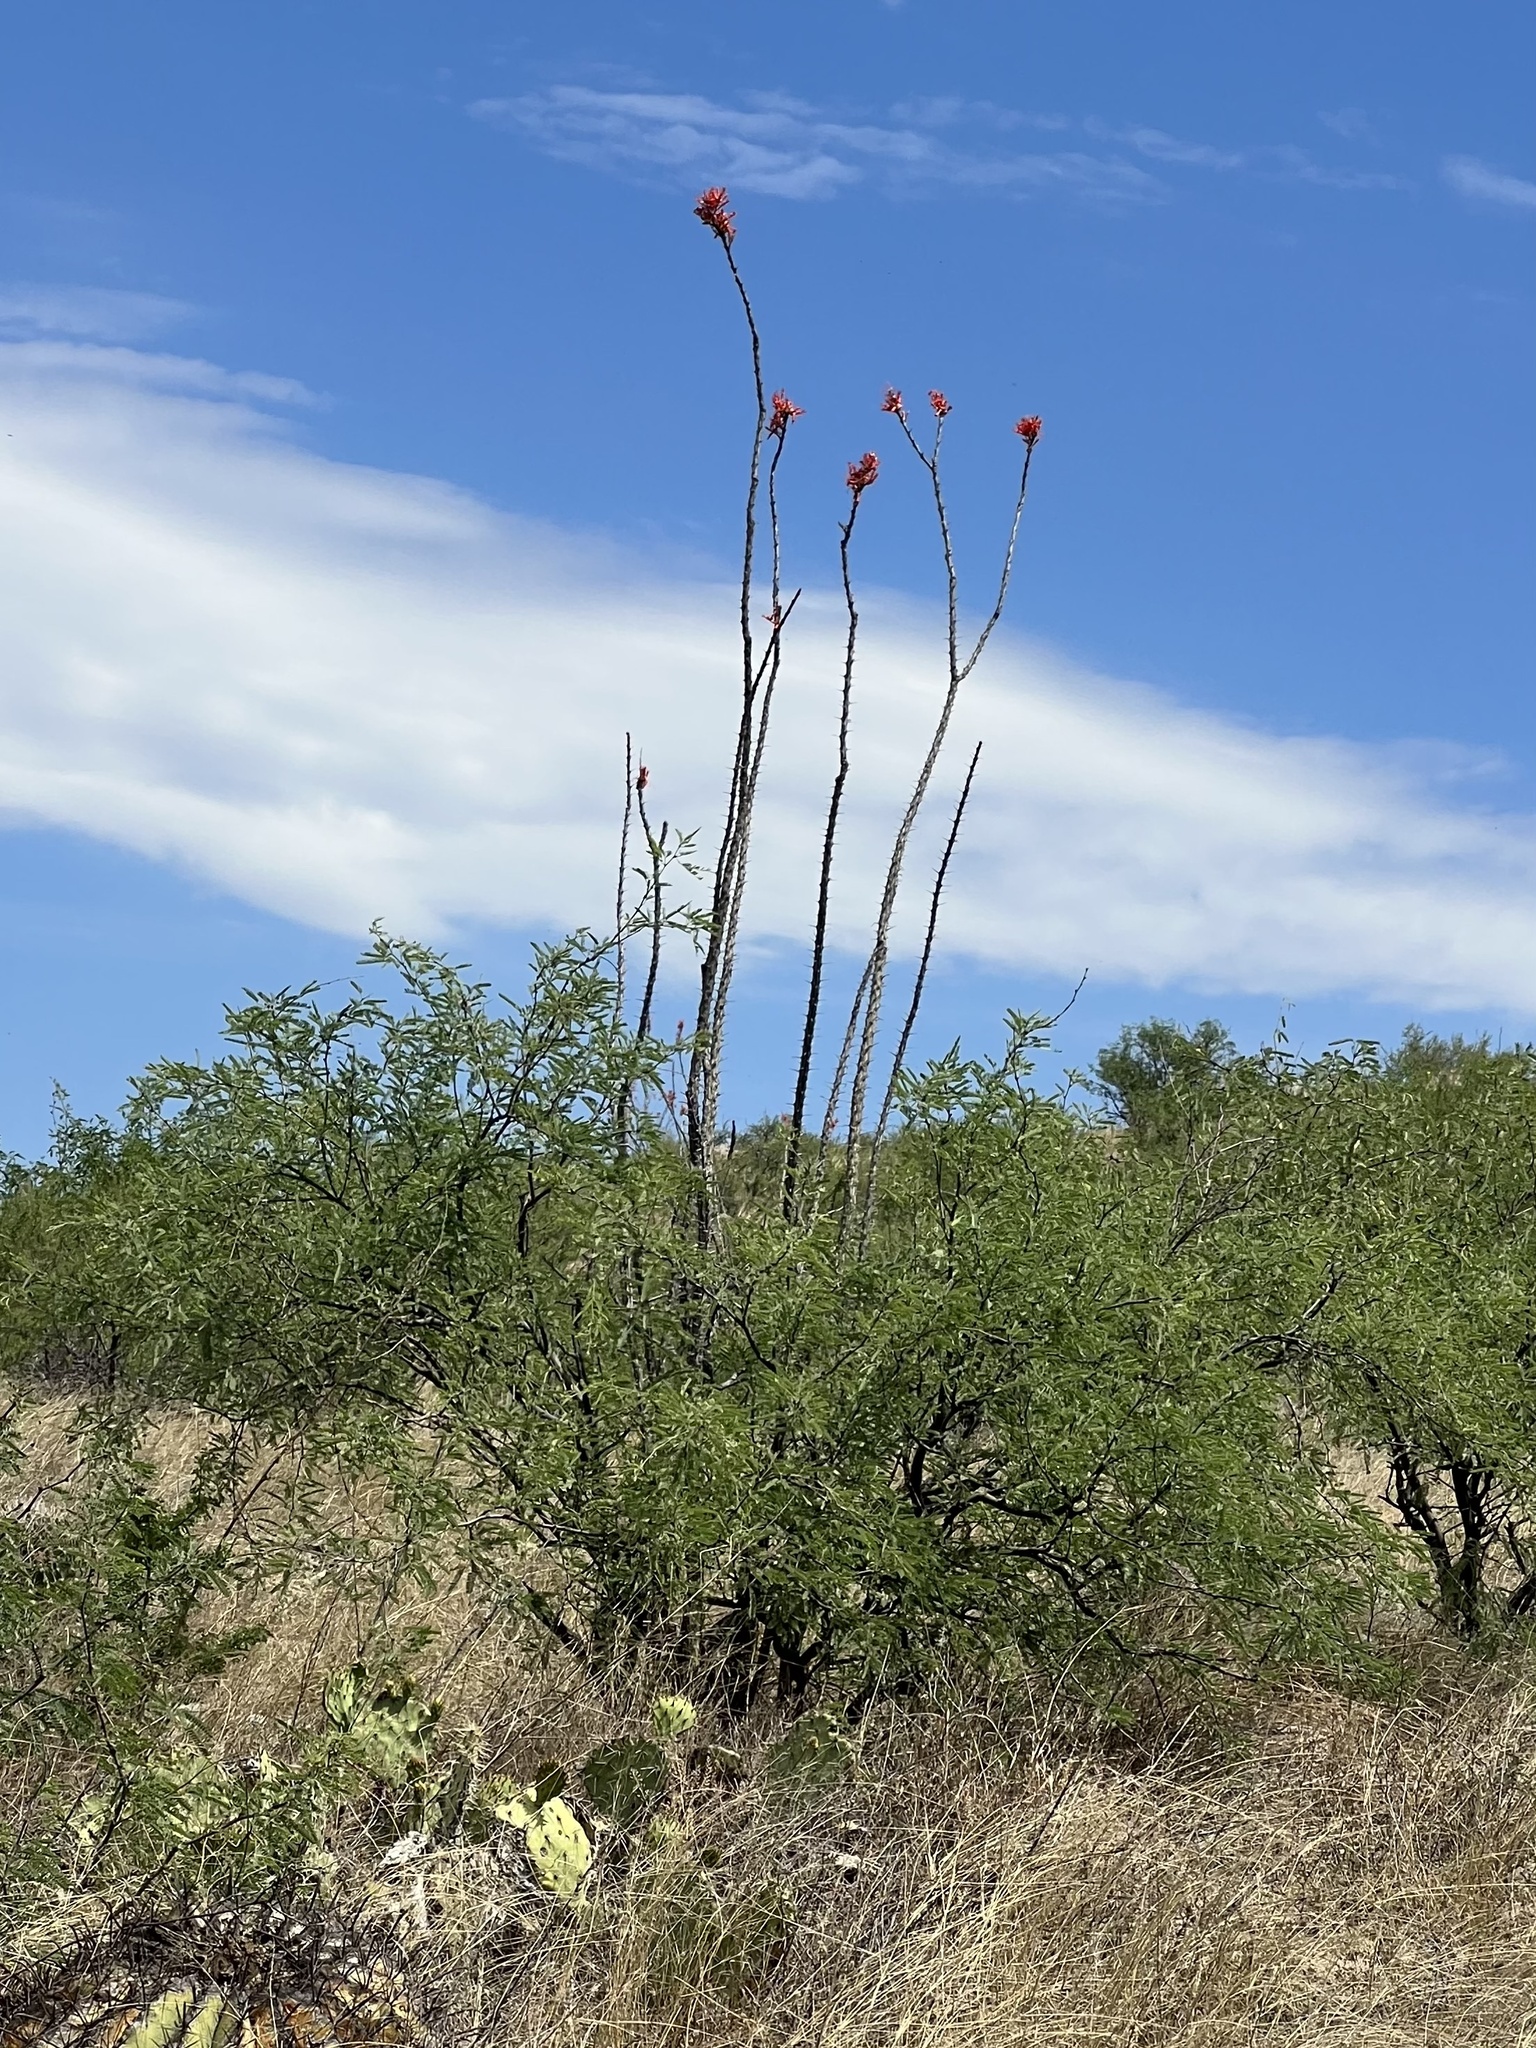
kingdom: Plantae
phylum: Tracheophyta
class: Magnoliopsida
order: Ericales
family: Fouquieriaceae
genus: Fouquieria
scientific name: Fouquieria splendens
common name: Vine-cactus
